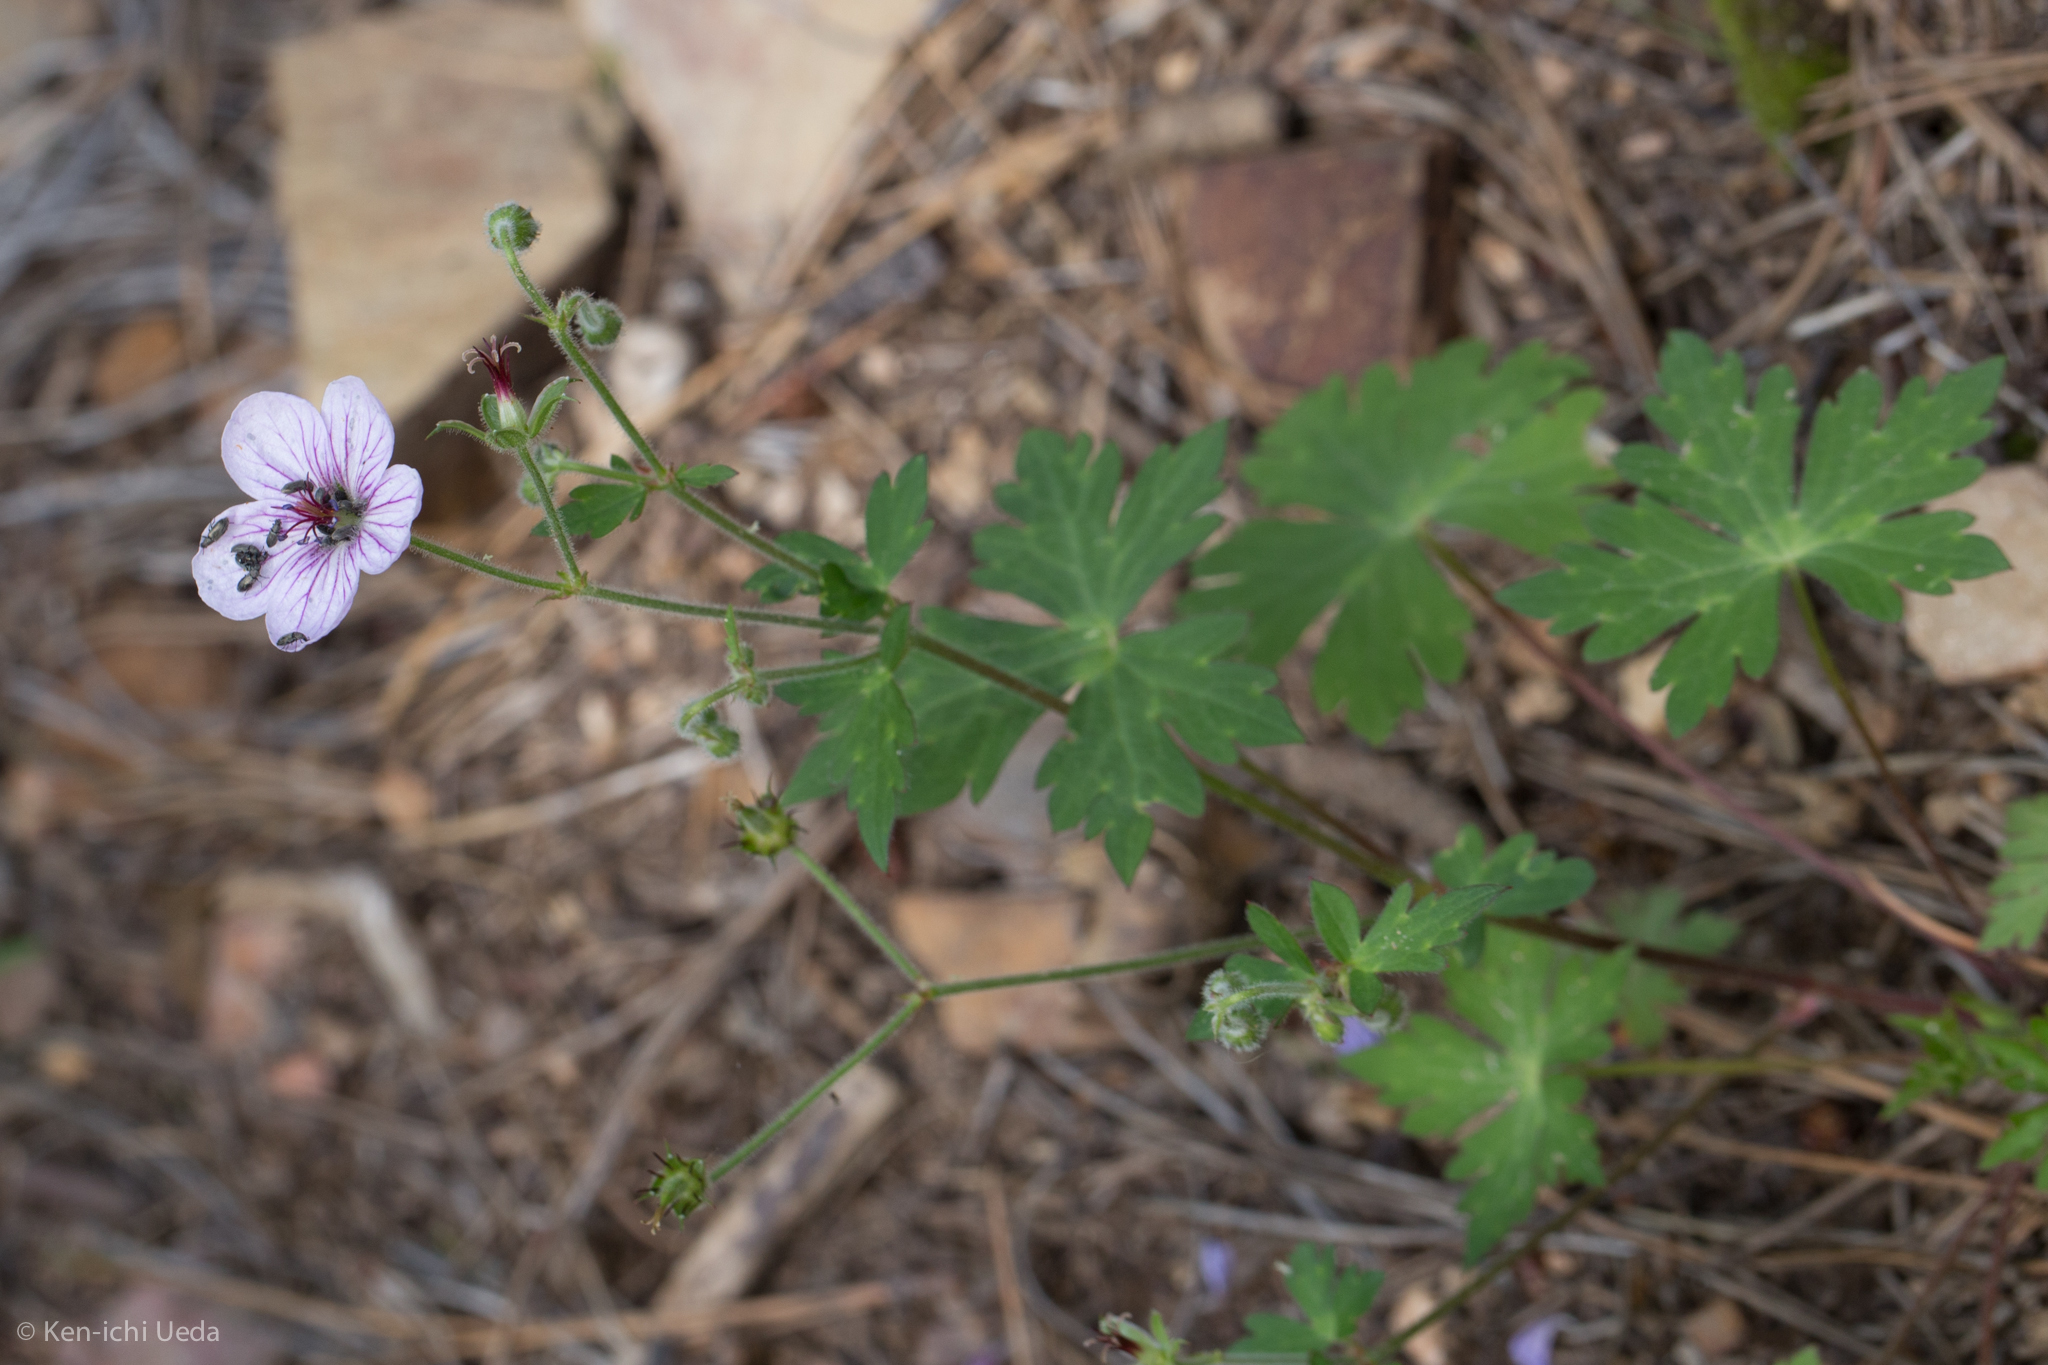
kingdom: Plantae
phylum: Tracheophyta
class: Magnoliopsida
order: Geraniales
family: Geraniaceae
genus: Geranium
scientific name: Geranium richardsonii
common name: Richardson's crane's-bill
